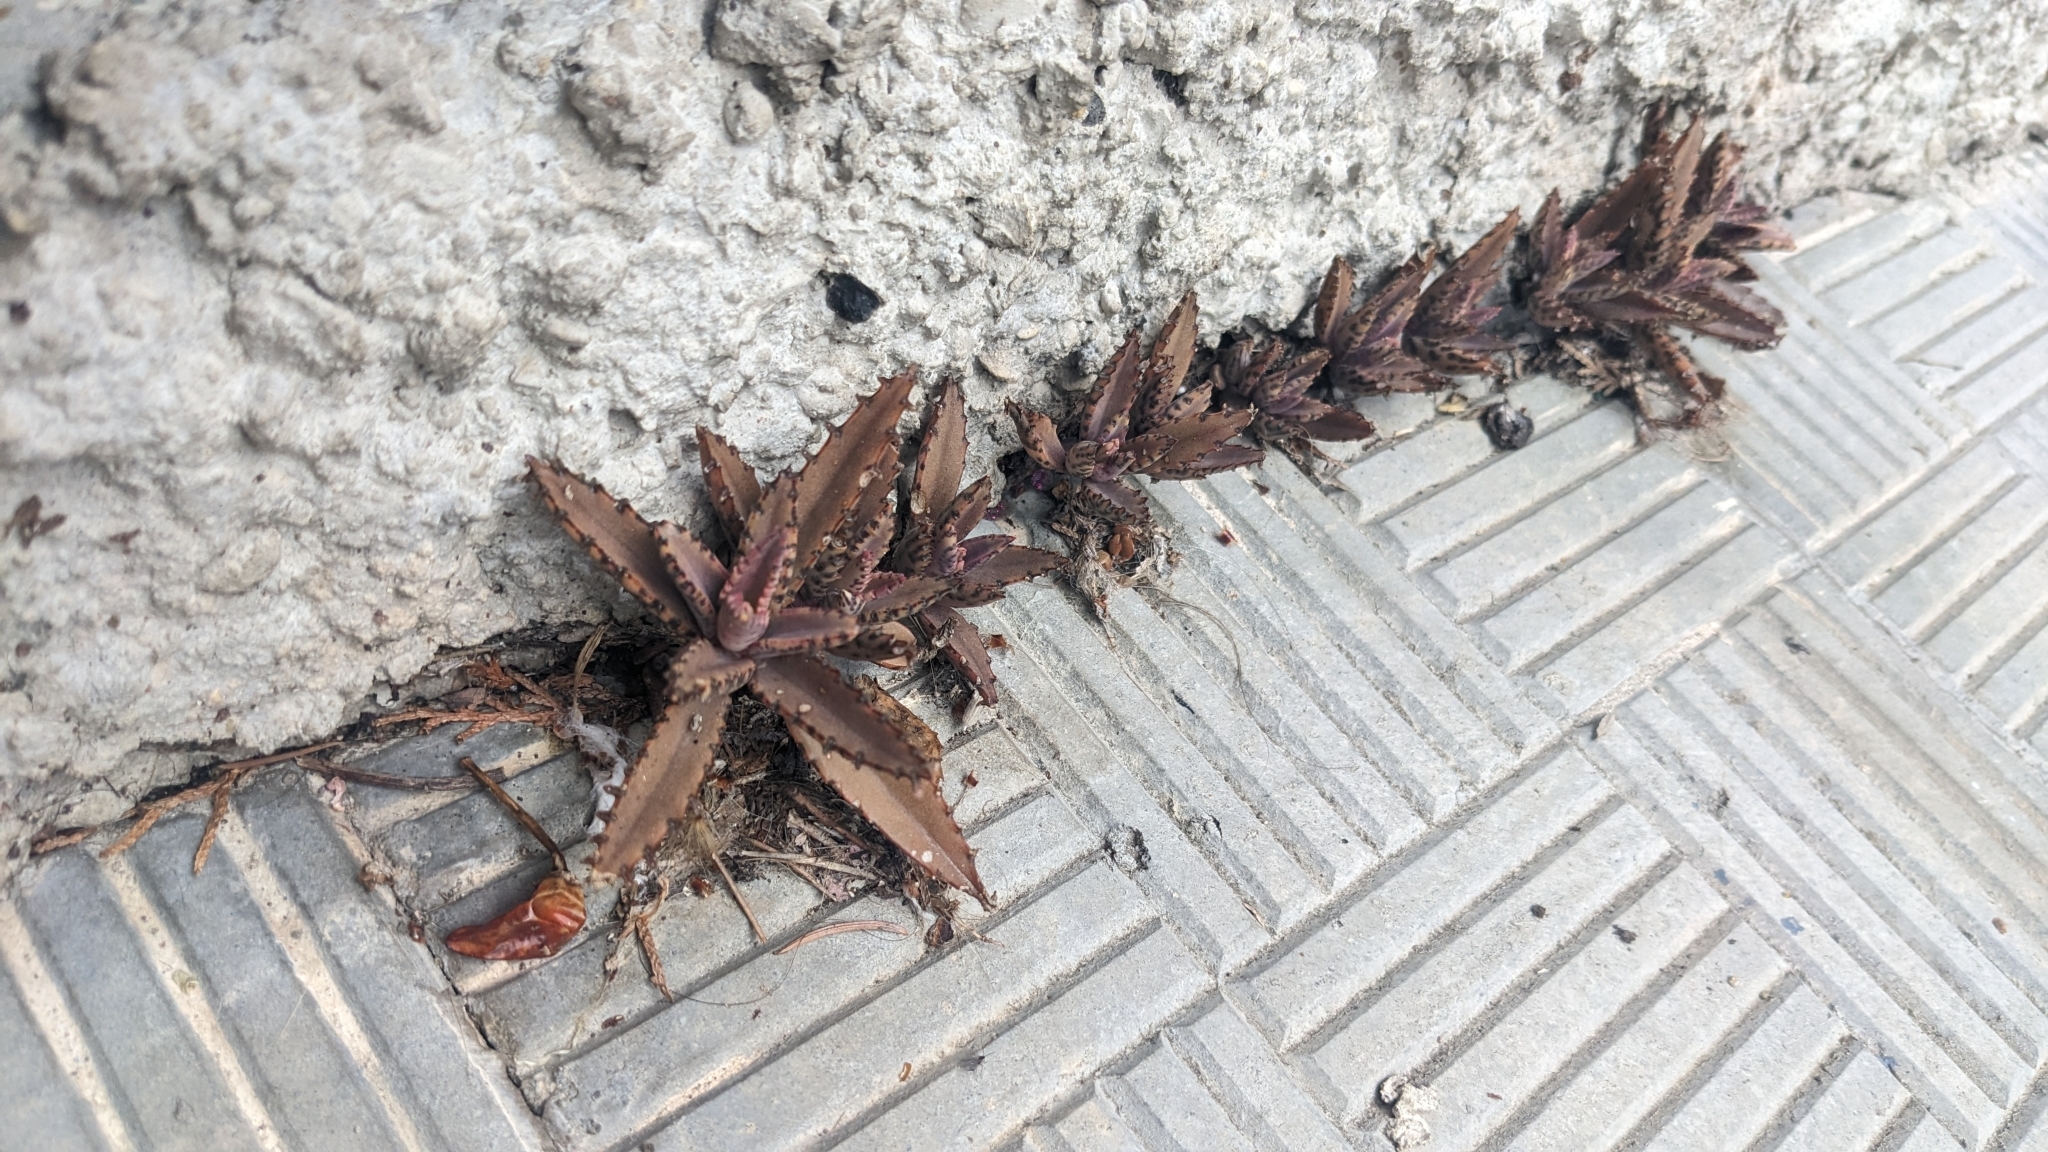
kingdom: Plantae
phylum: Tracheophyta
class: Magnoliopsida
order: Saxifragales
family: Crassulaceae
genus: Kalanchoe
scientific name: Kalanchoe houghtonii
